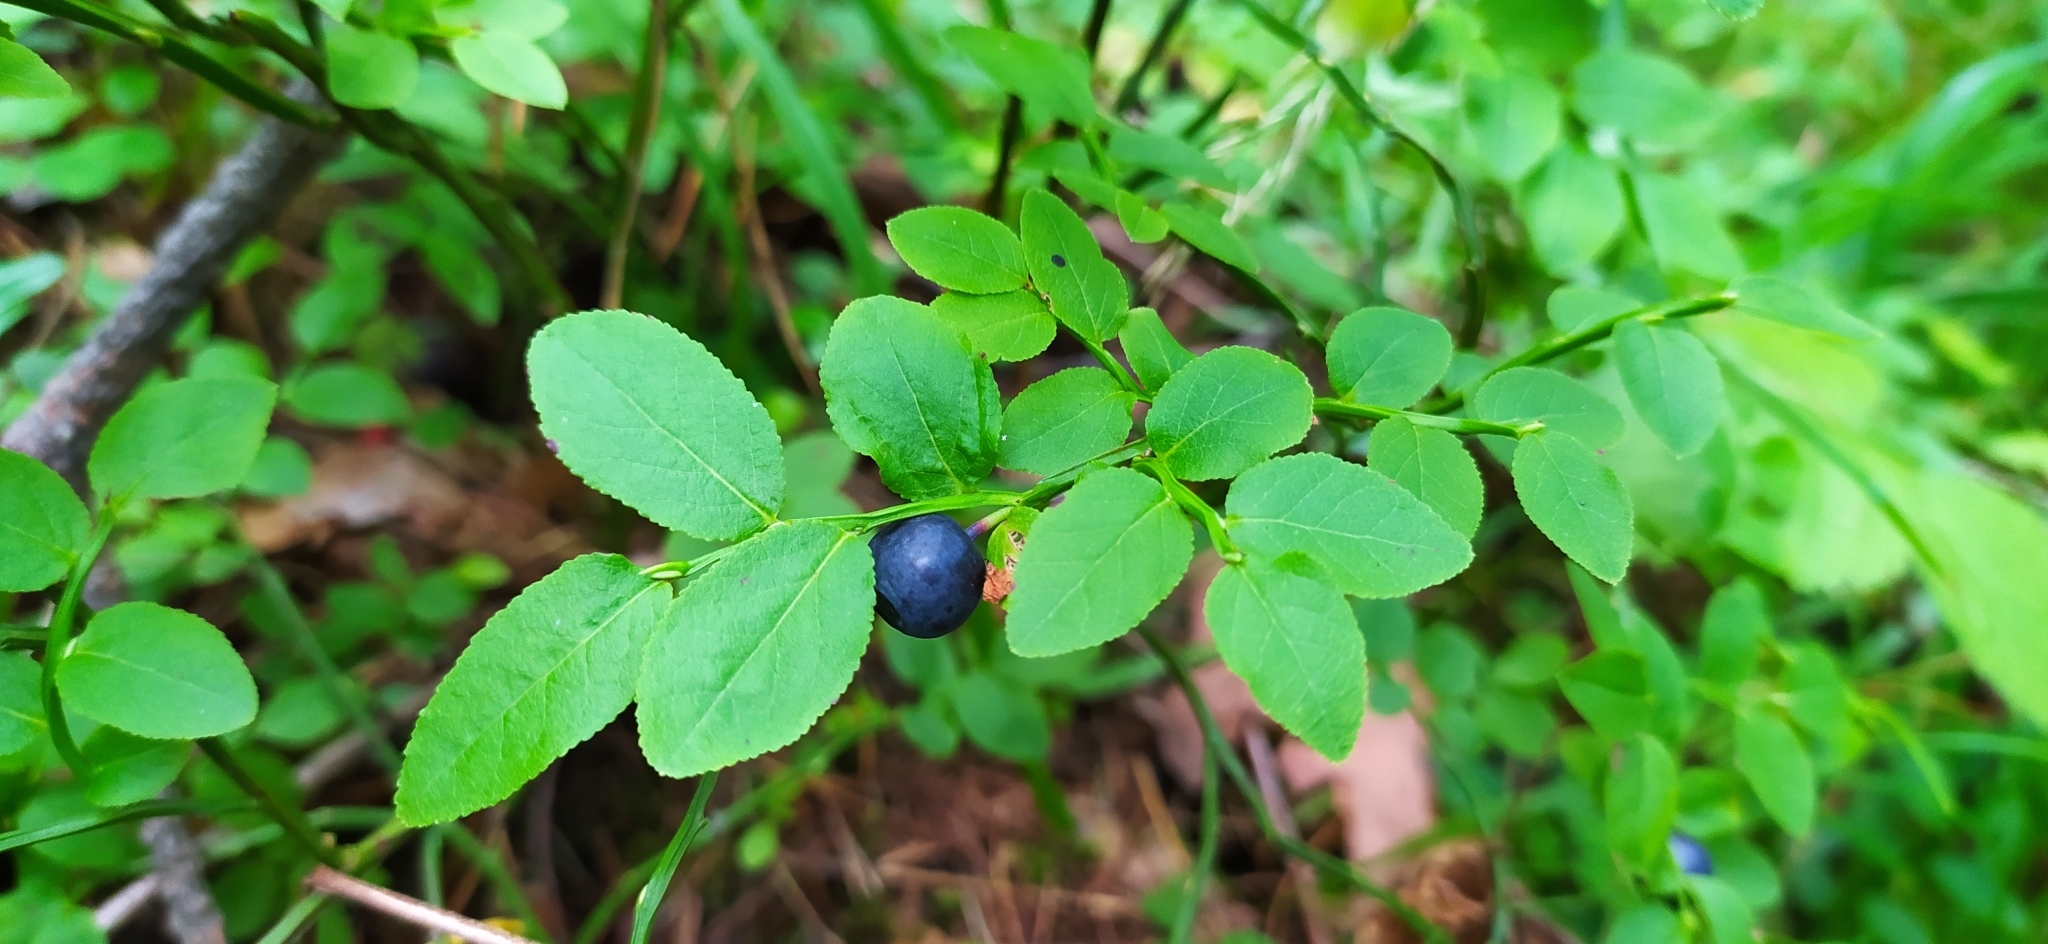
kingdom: Plantae
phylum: Tracheophyta
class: Magnoliopsida
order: Ericales
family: Ericaceae
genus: Vaccinium
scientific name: Vaccinium myrtillus
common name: Bilberry
